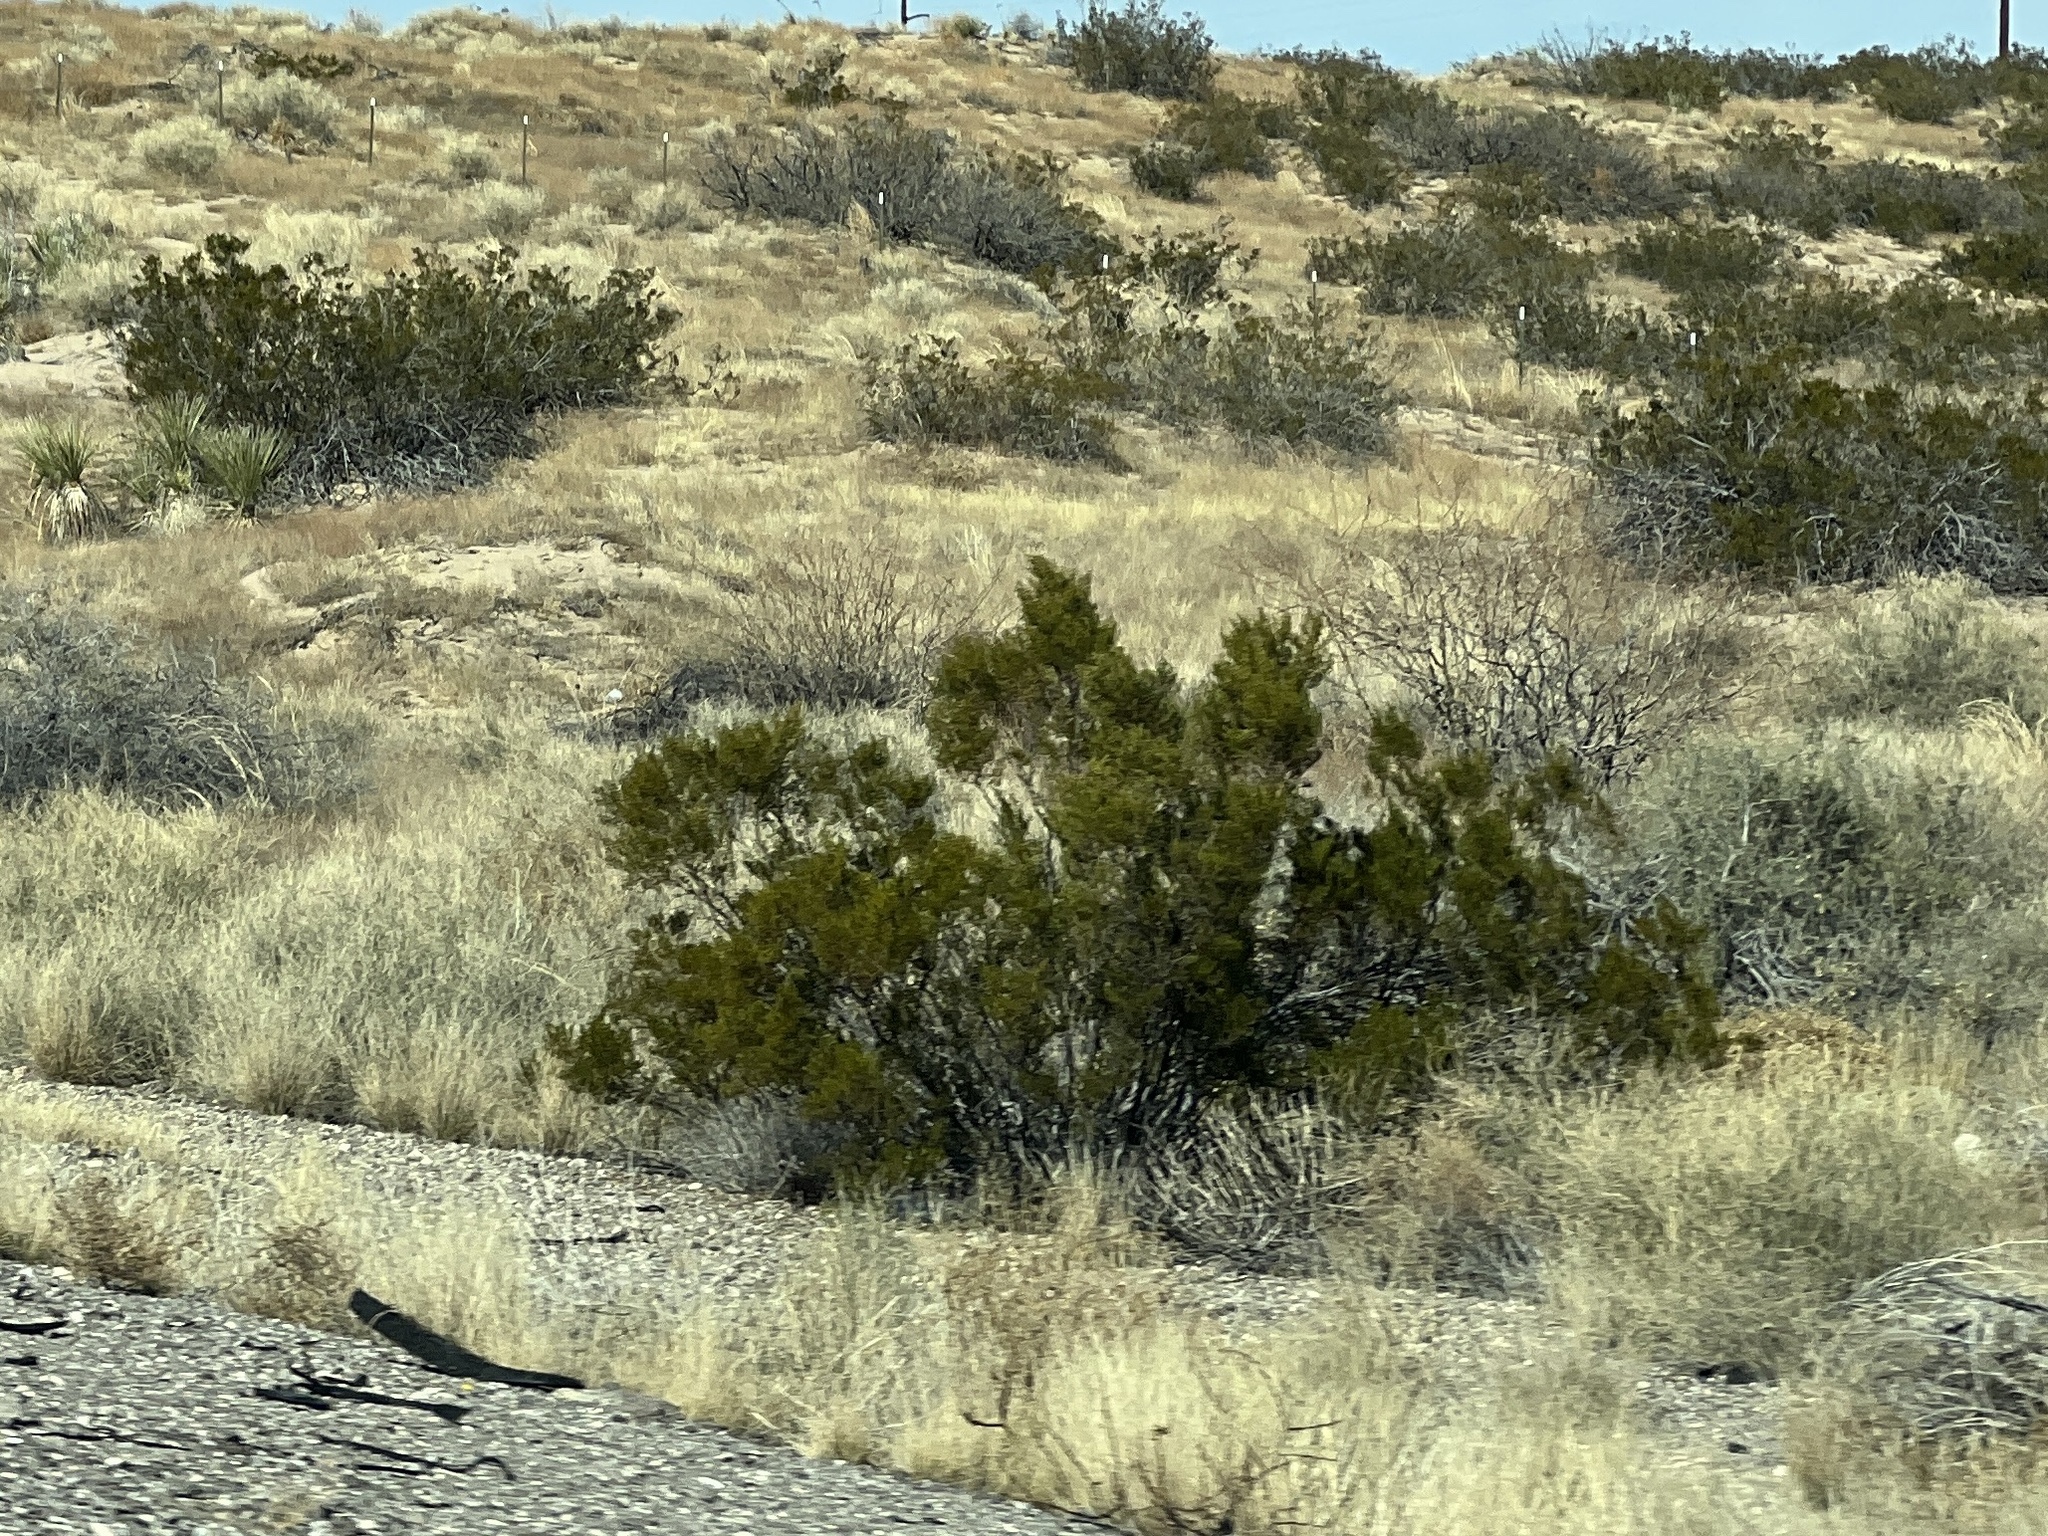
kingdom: Plantae
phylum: Tracheophyta
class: Magnoliopsida
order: Zygophyllales
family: Zygophyllaceae
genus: Larrea
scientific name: Larrea tridentata
